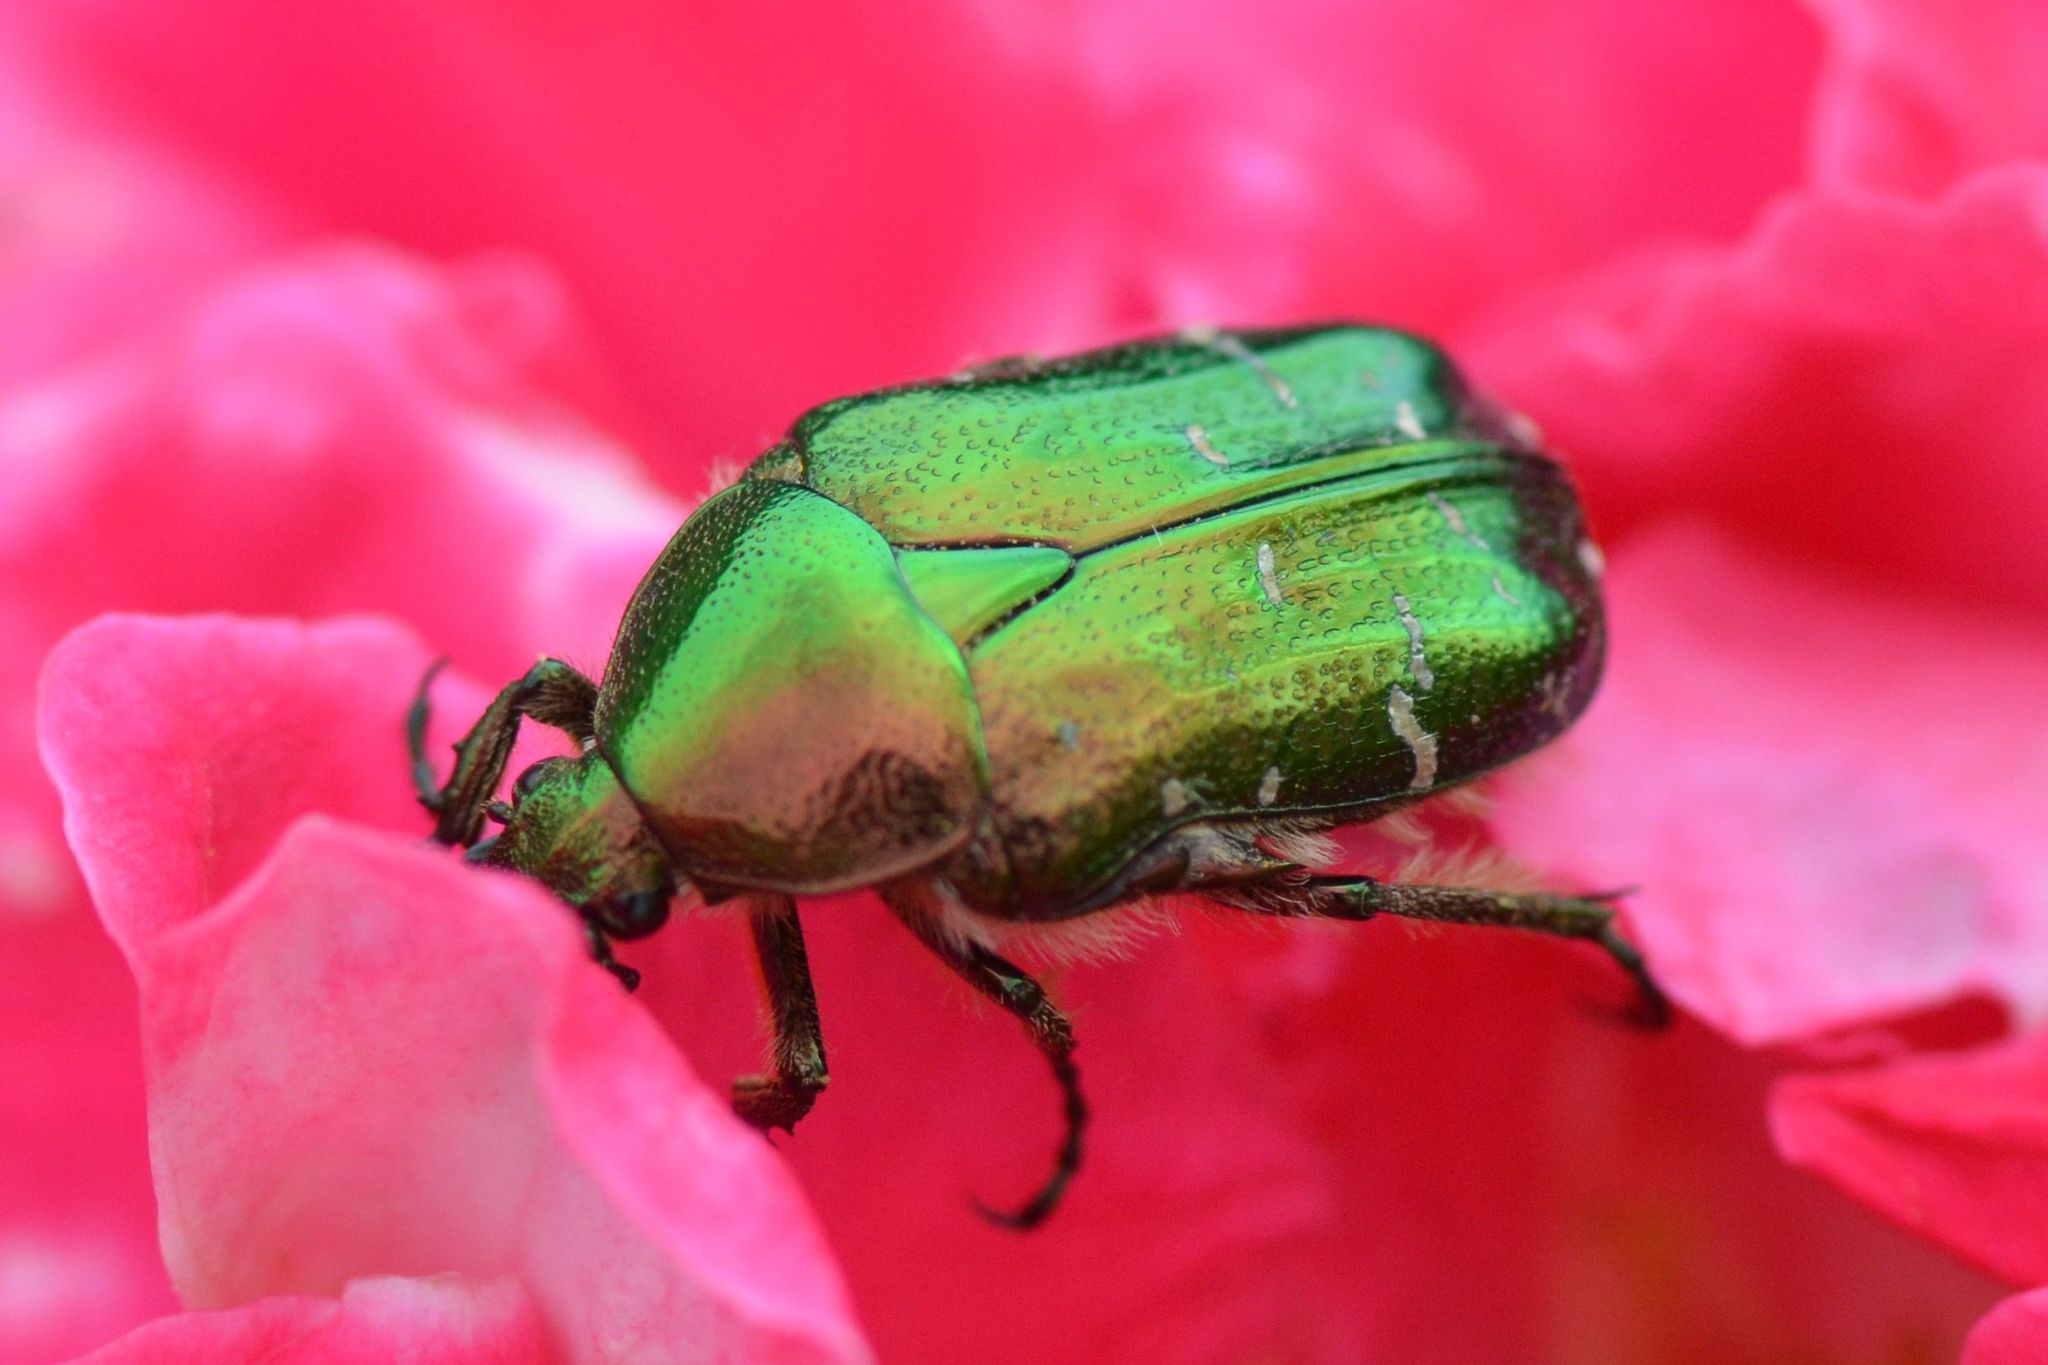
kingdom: Animalia
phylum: Arthropoda
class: Insecta
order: Coleoptera
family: Scarabaeidae
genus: Cetonia
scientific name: Cetonia aurata
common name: Rose chafer
